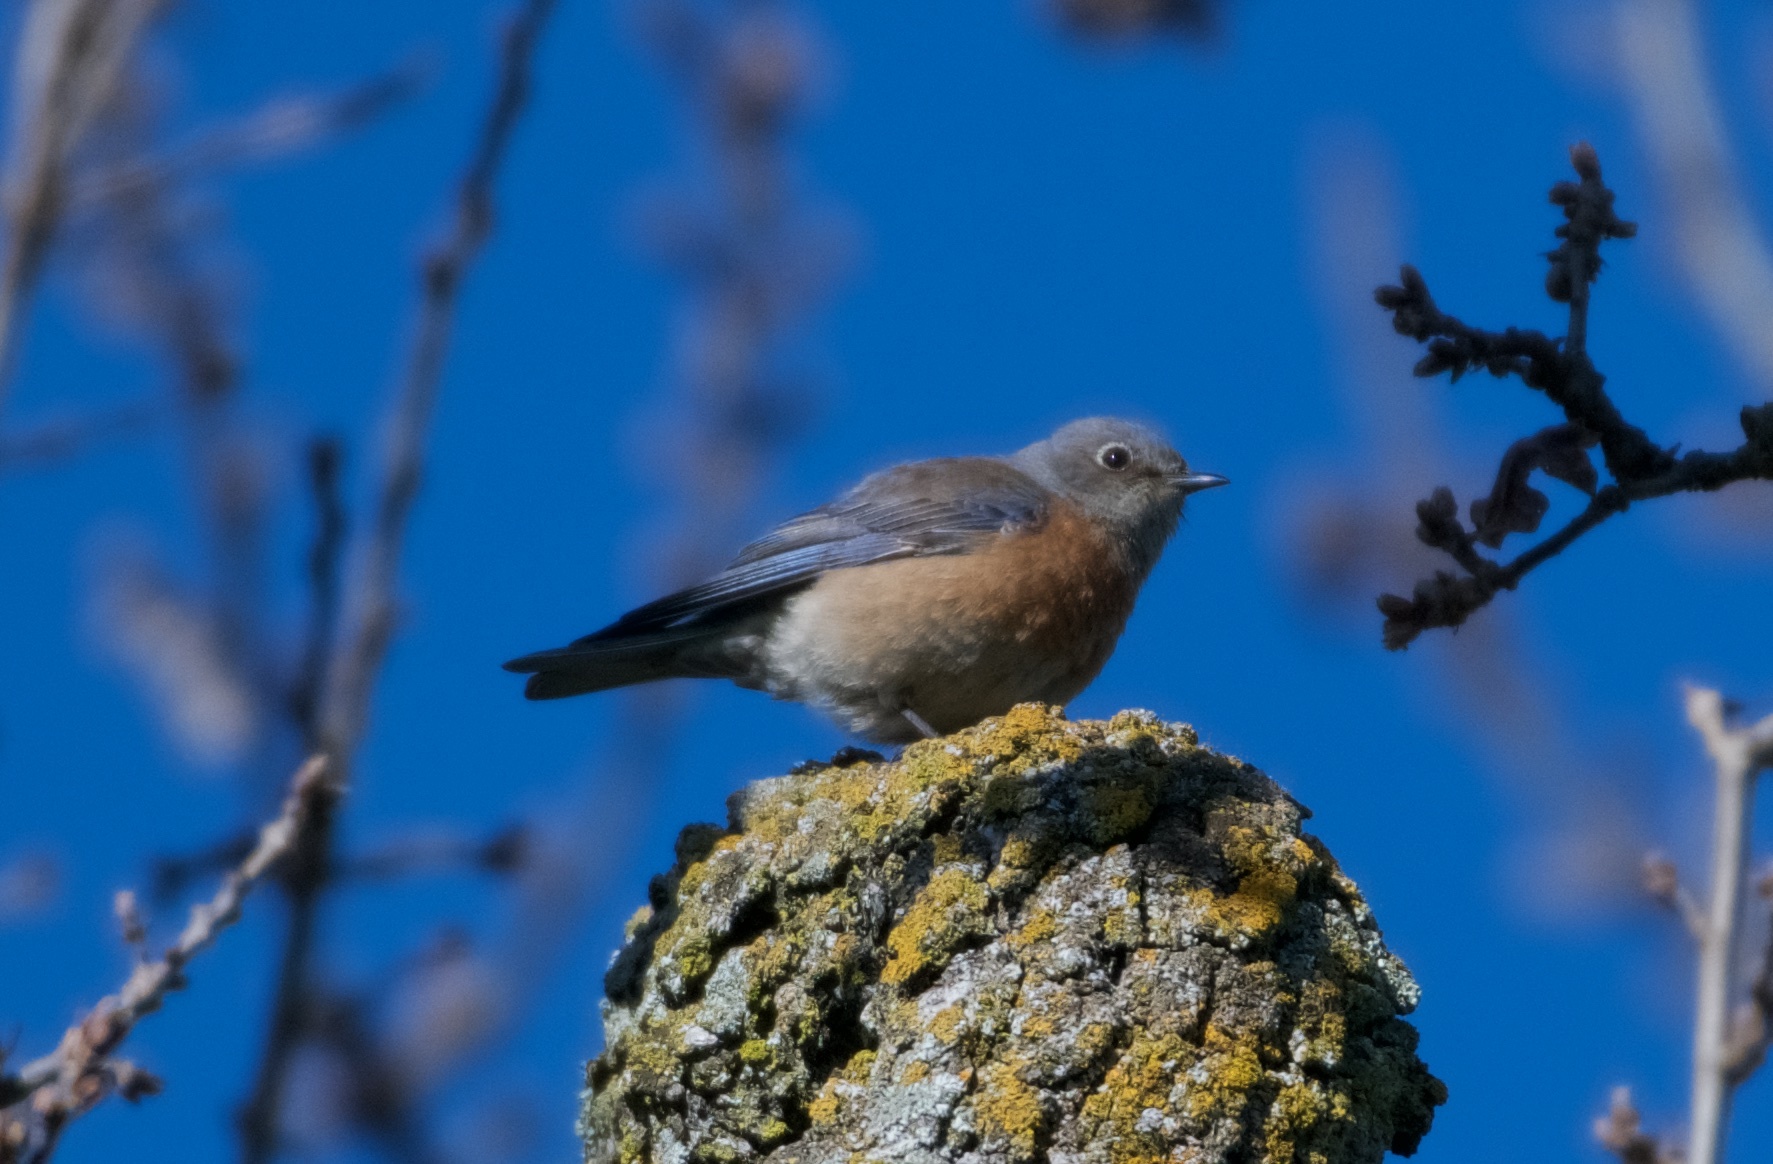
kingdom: Animalia
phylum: Chordata
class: Aves
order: Passeriformes
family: Turdidae
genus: Sialia
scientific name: Sialia mexicana
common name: Western bluebird
